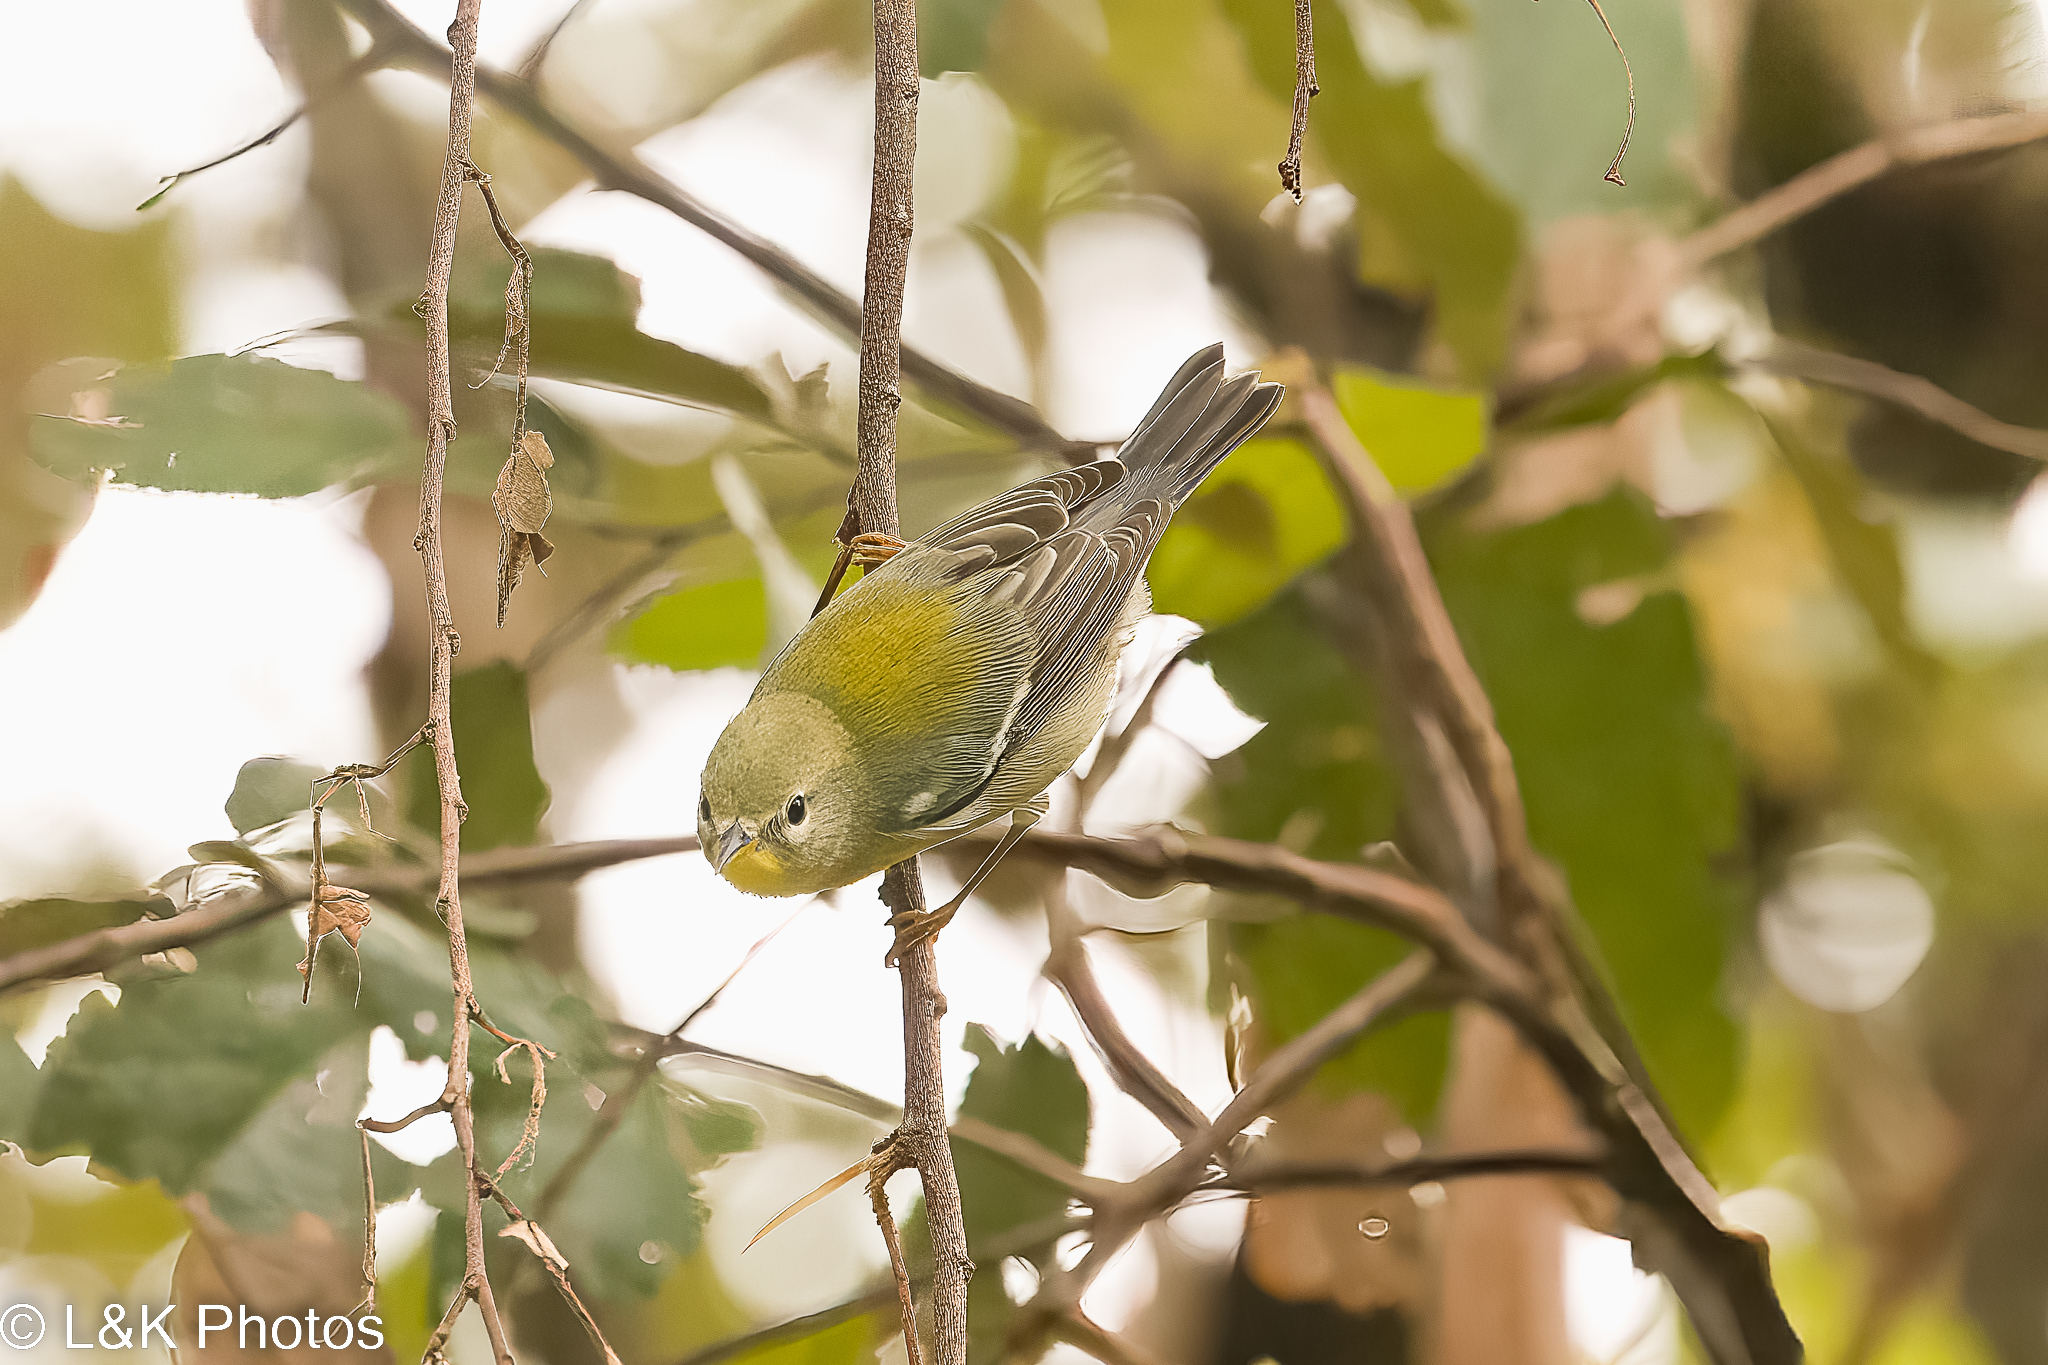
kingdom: Animalia
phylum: Chordata
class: Aves
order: Passeriformes
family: Parulidae
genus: Setophaga
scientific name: Setophaga americana
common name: Northern parula
